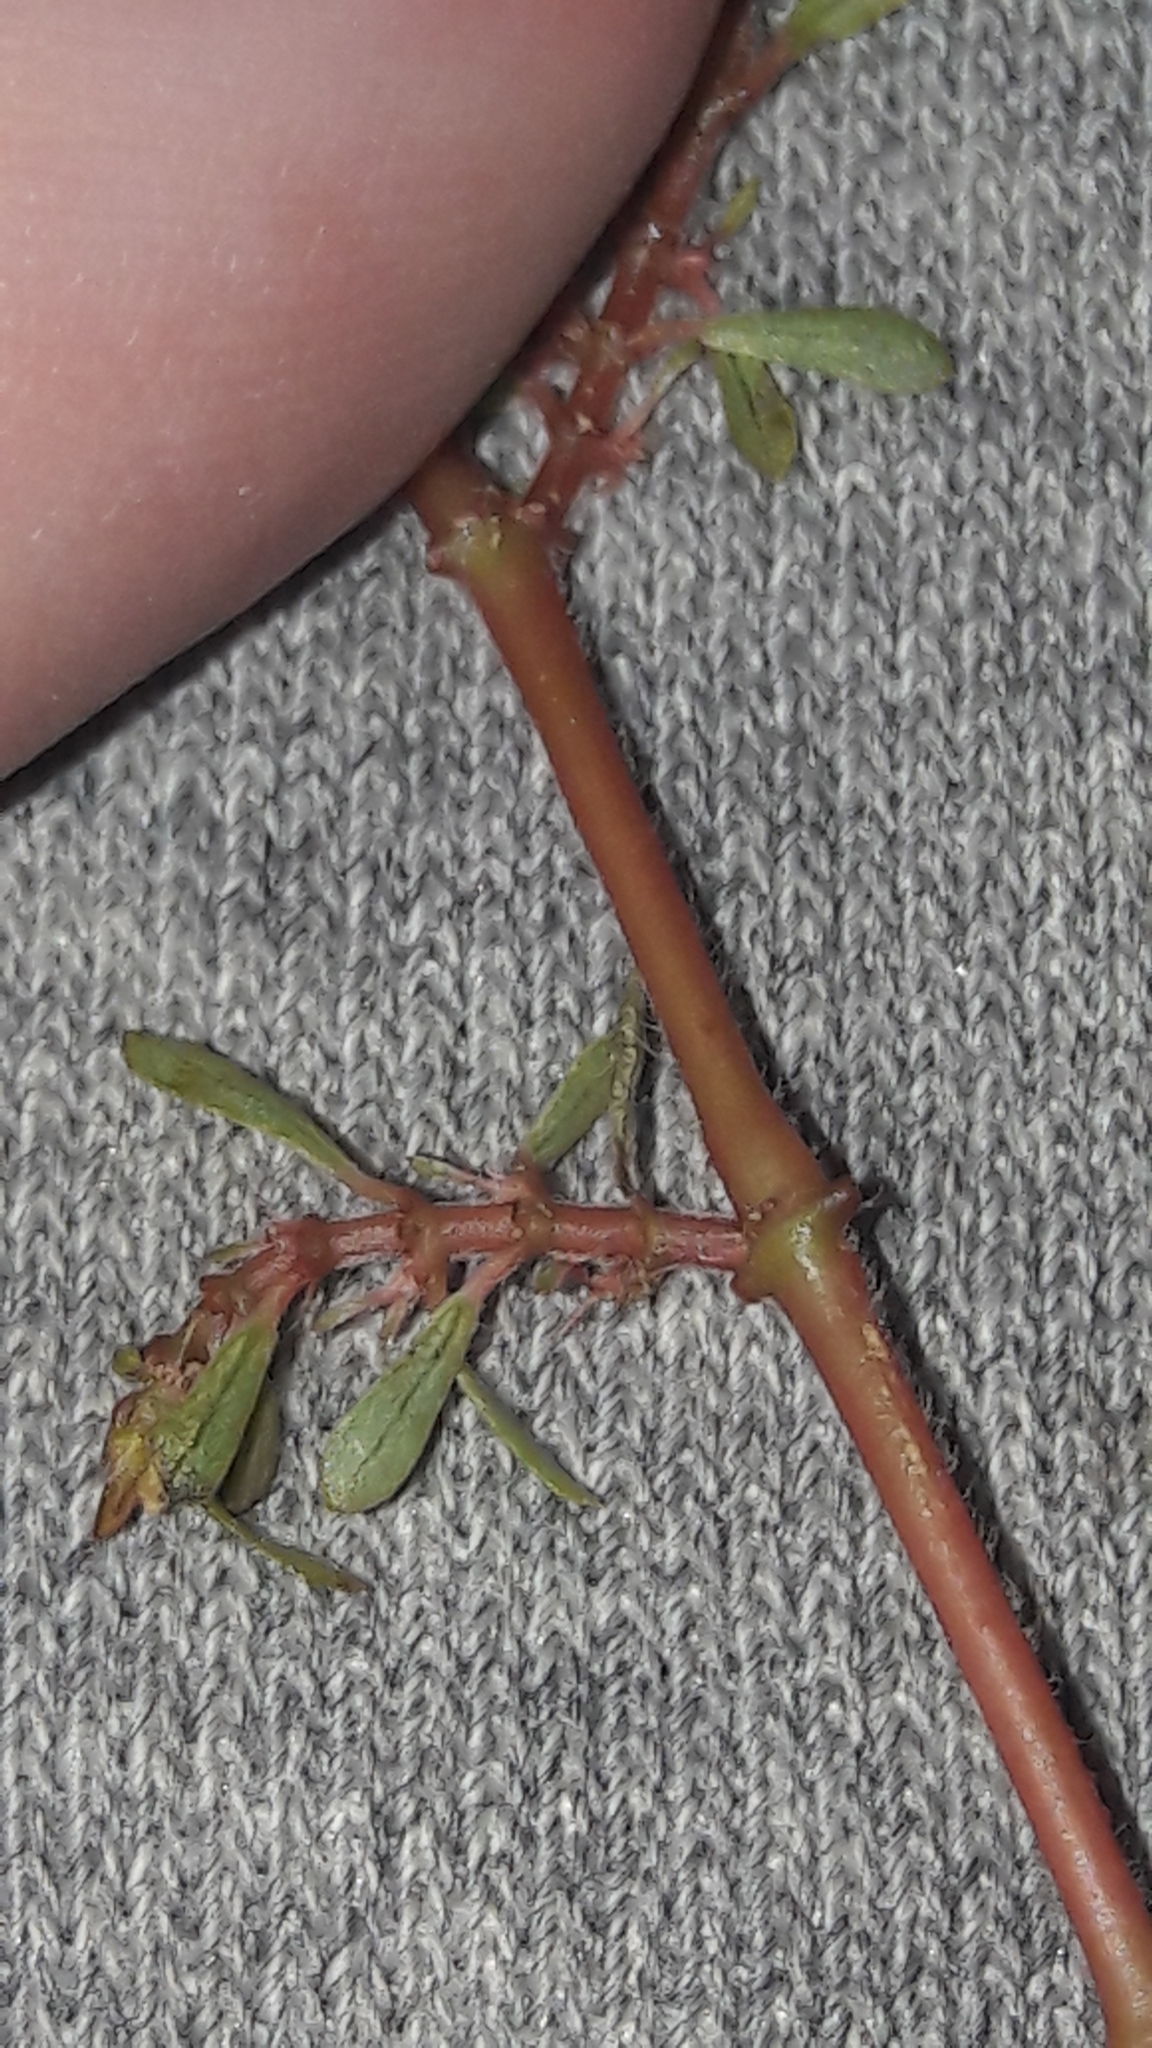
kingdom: Plantae
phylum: Tracheophyta
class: Magnoliopsida
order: Malpighiales
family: Euphorbiaceae
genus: Euphorbia
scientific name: Euphorbia maculata
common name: Spotted spurge
